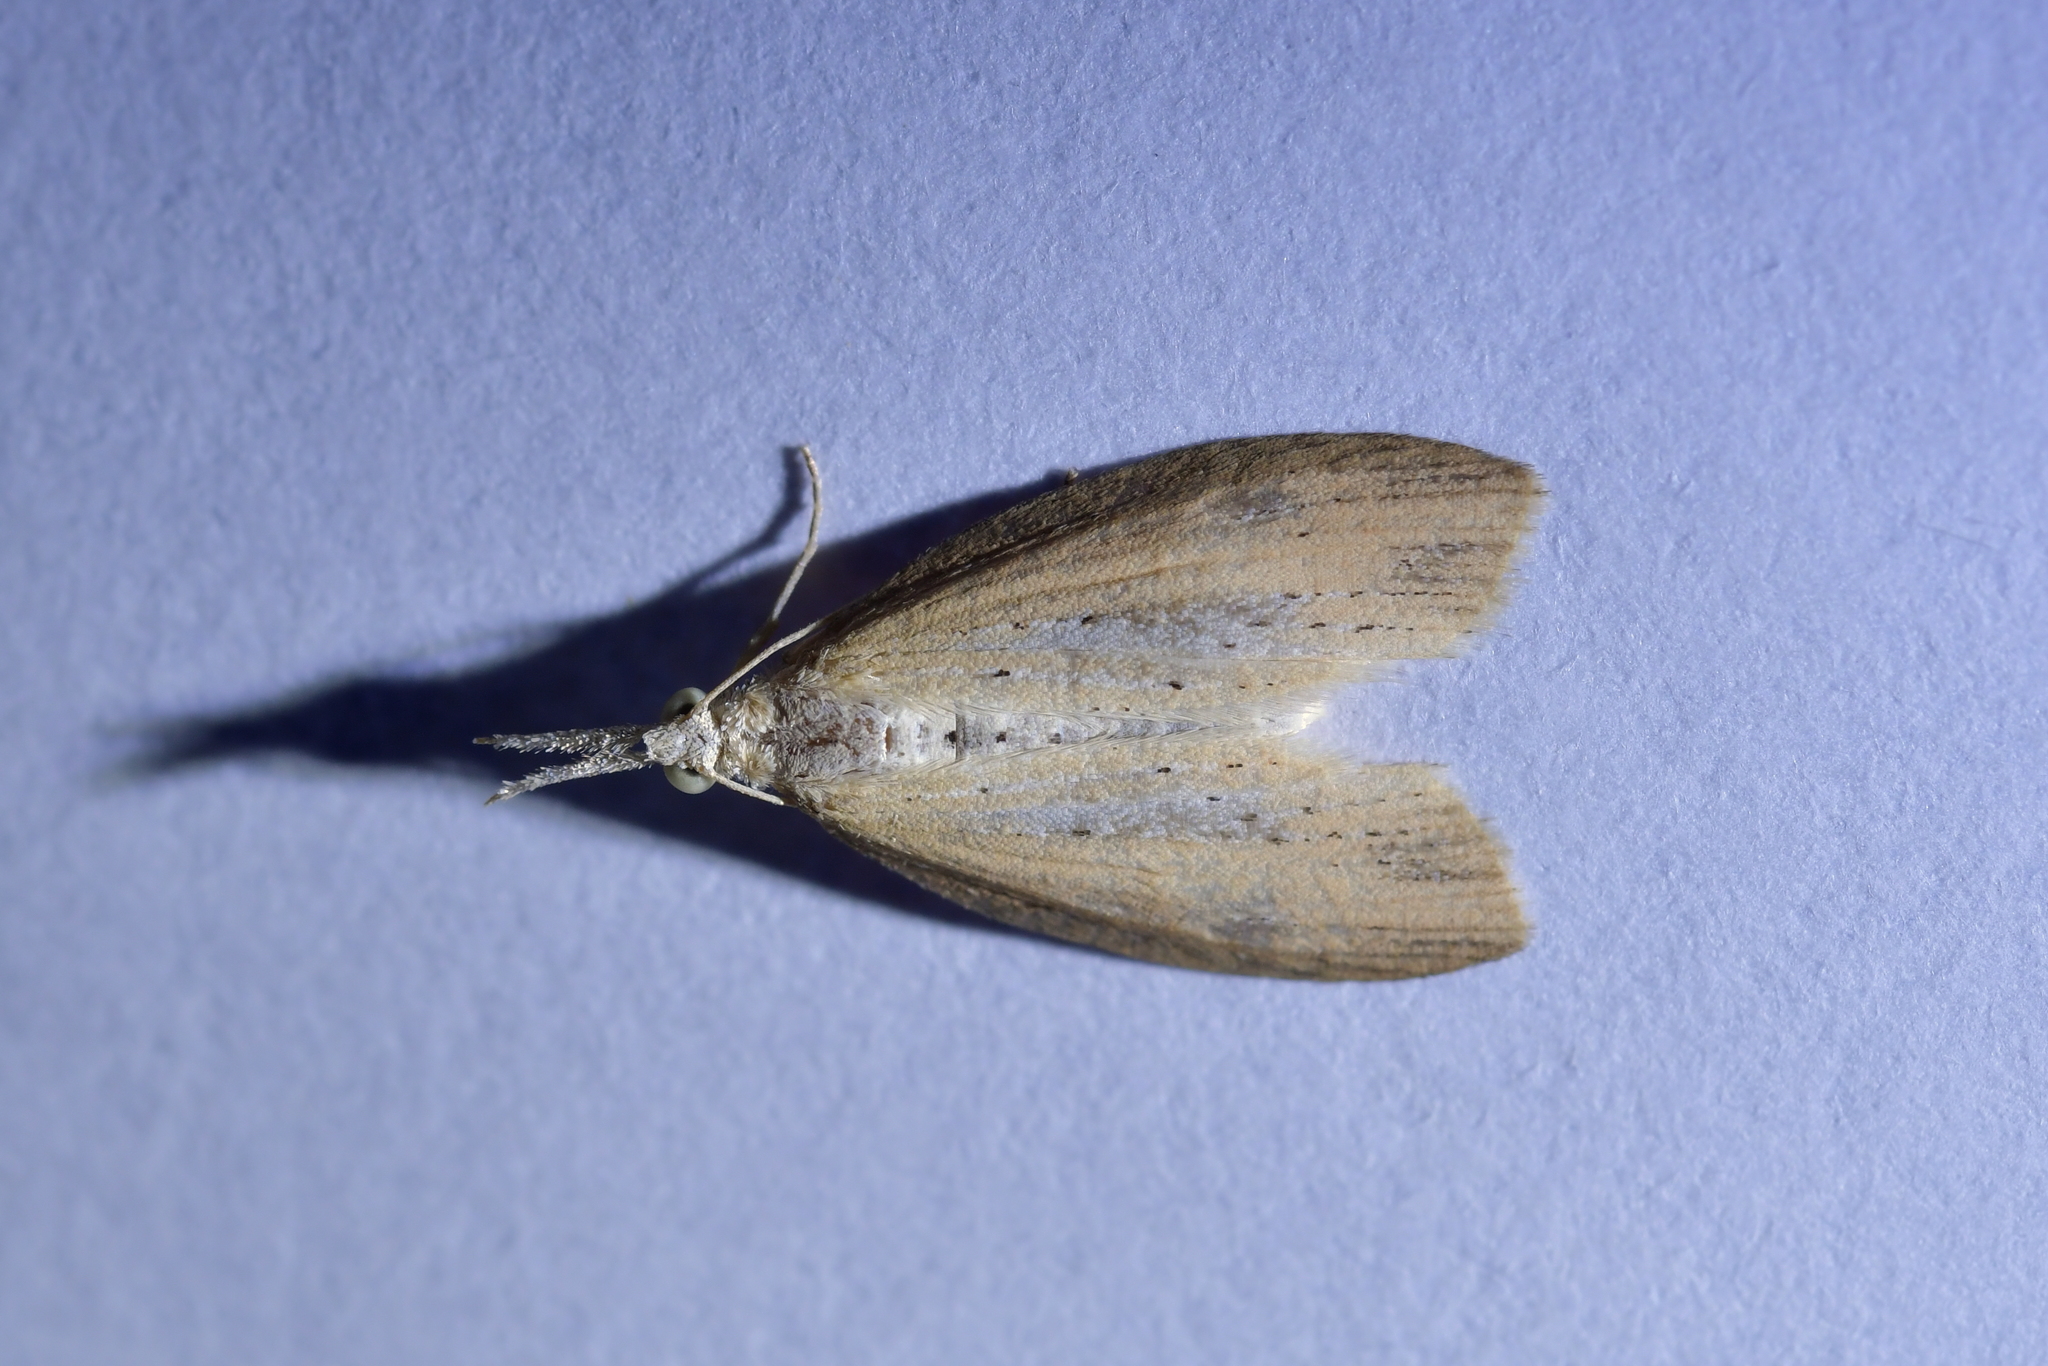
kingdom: Animalia
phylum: Arthropoda
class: Insecta
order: Lepidoptera
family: Geometridae
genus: Microdes
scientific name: Microdes epicryptis
